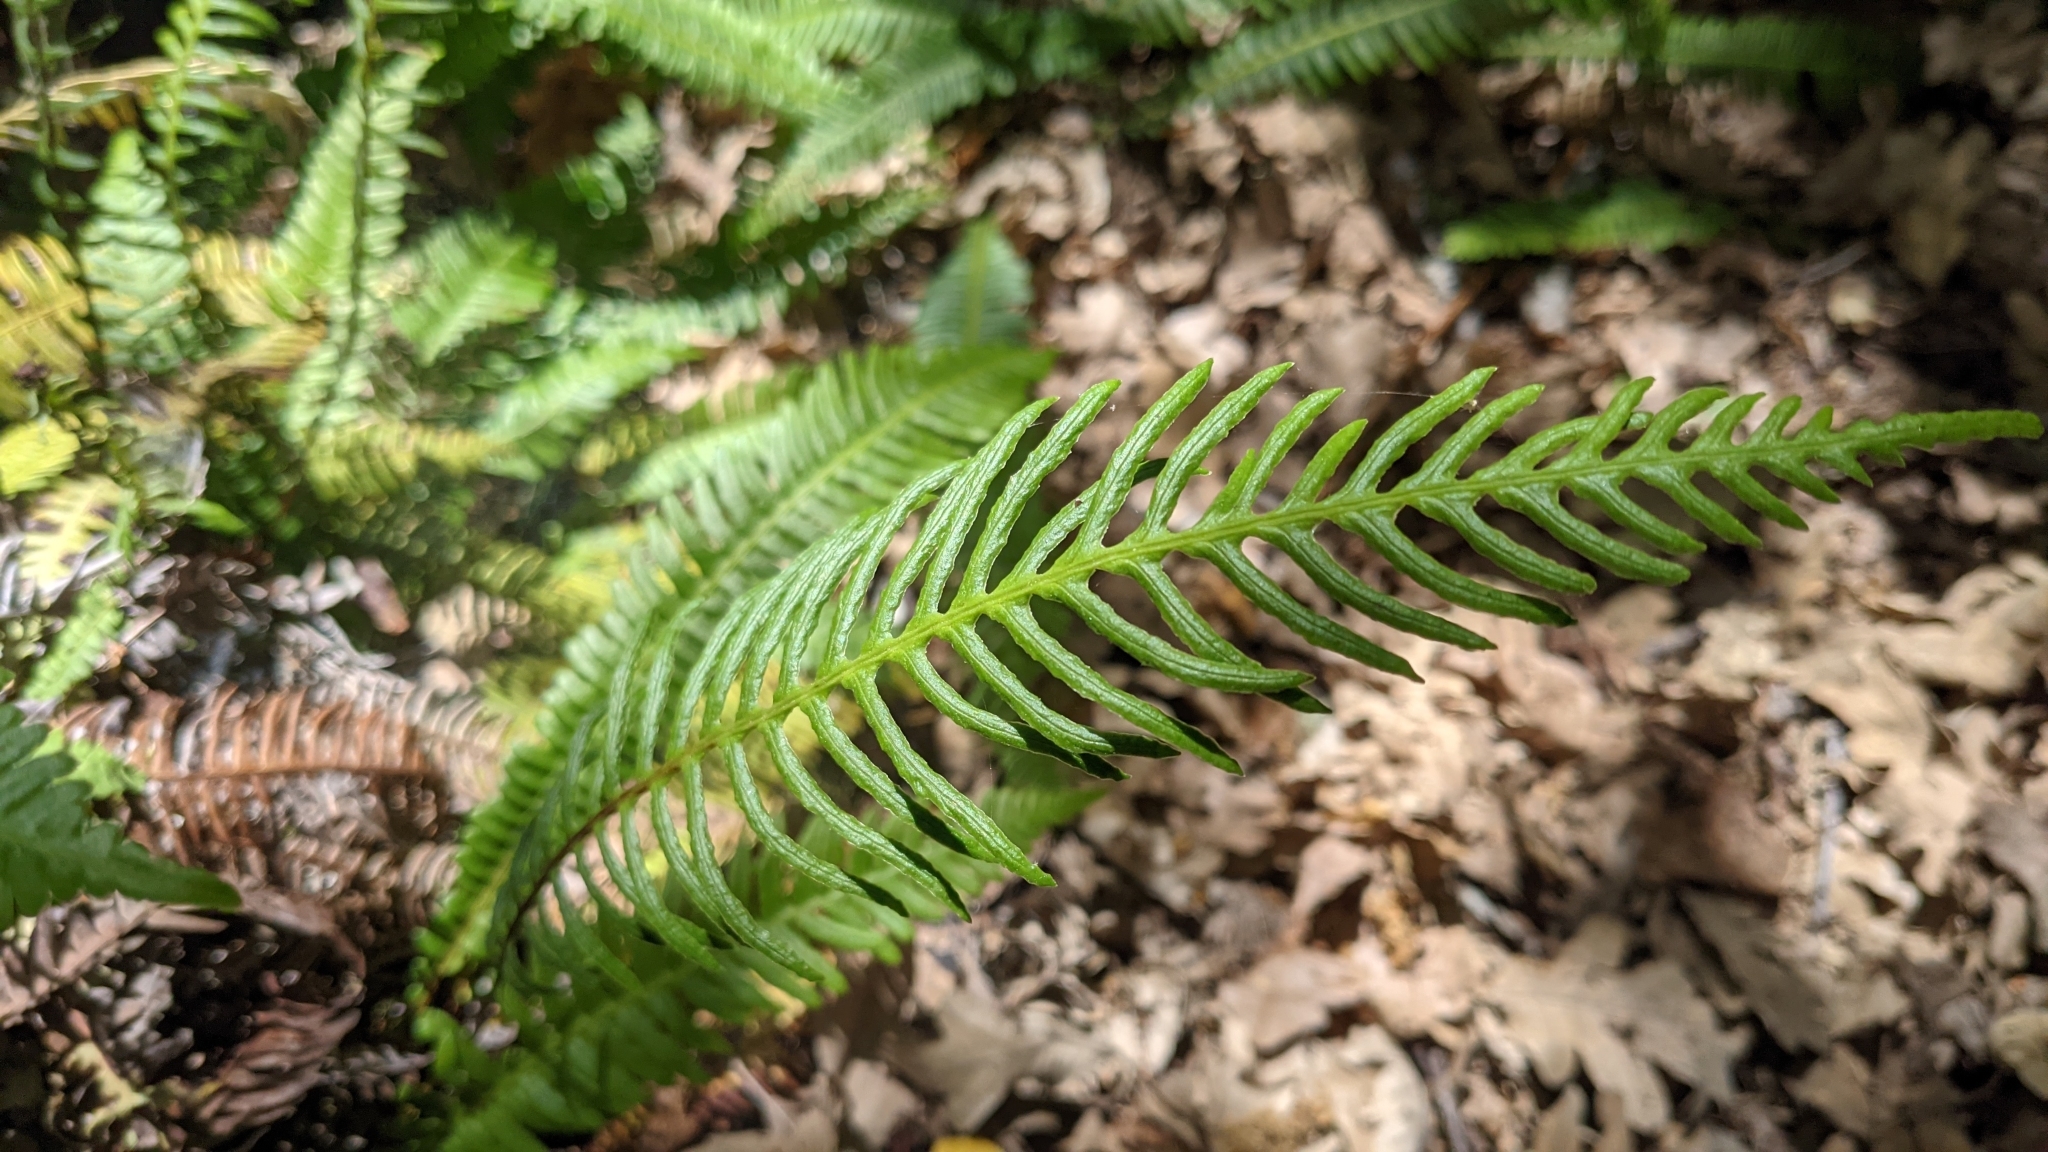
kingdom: Plantae
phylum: Tracheophyta
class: Polypodiopsida
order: Polypodiales
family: Blechnaceae
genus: Struthiopteris
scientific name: Struthiopteris spicant
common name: Deer fern
